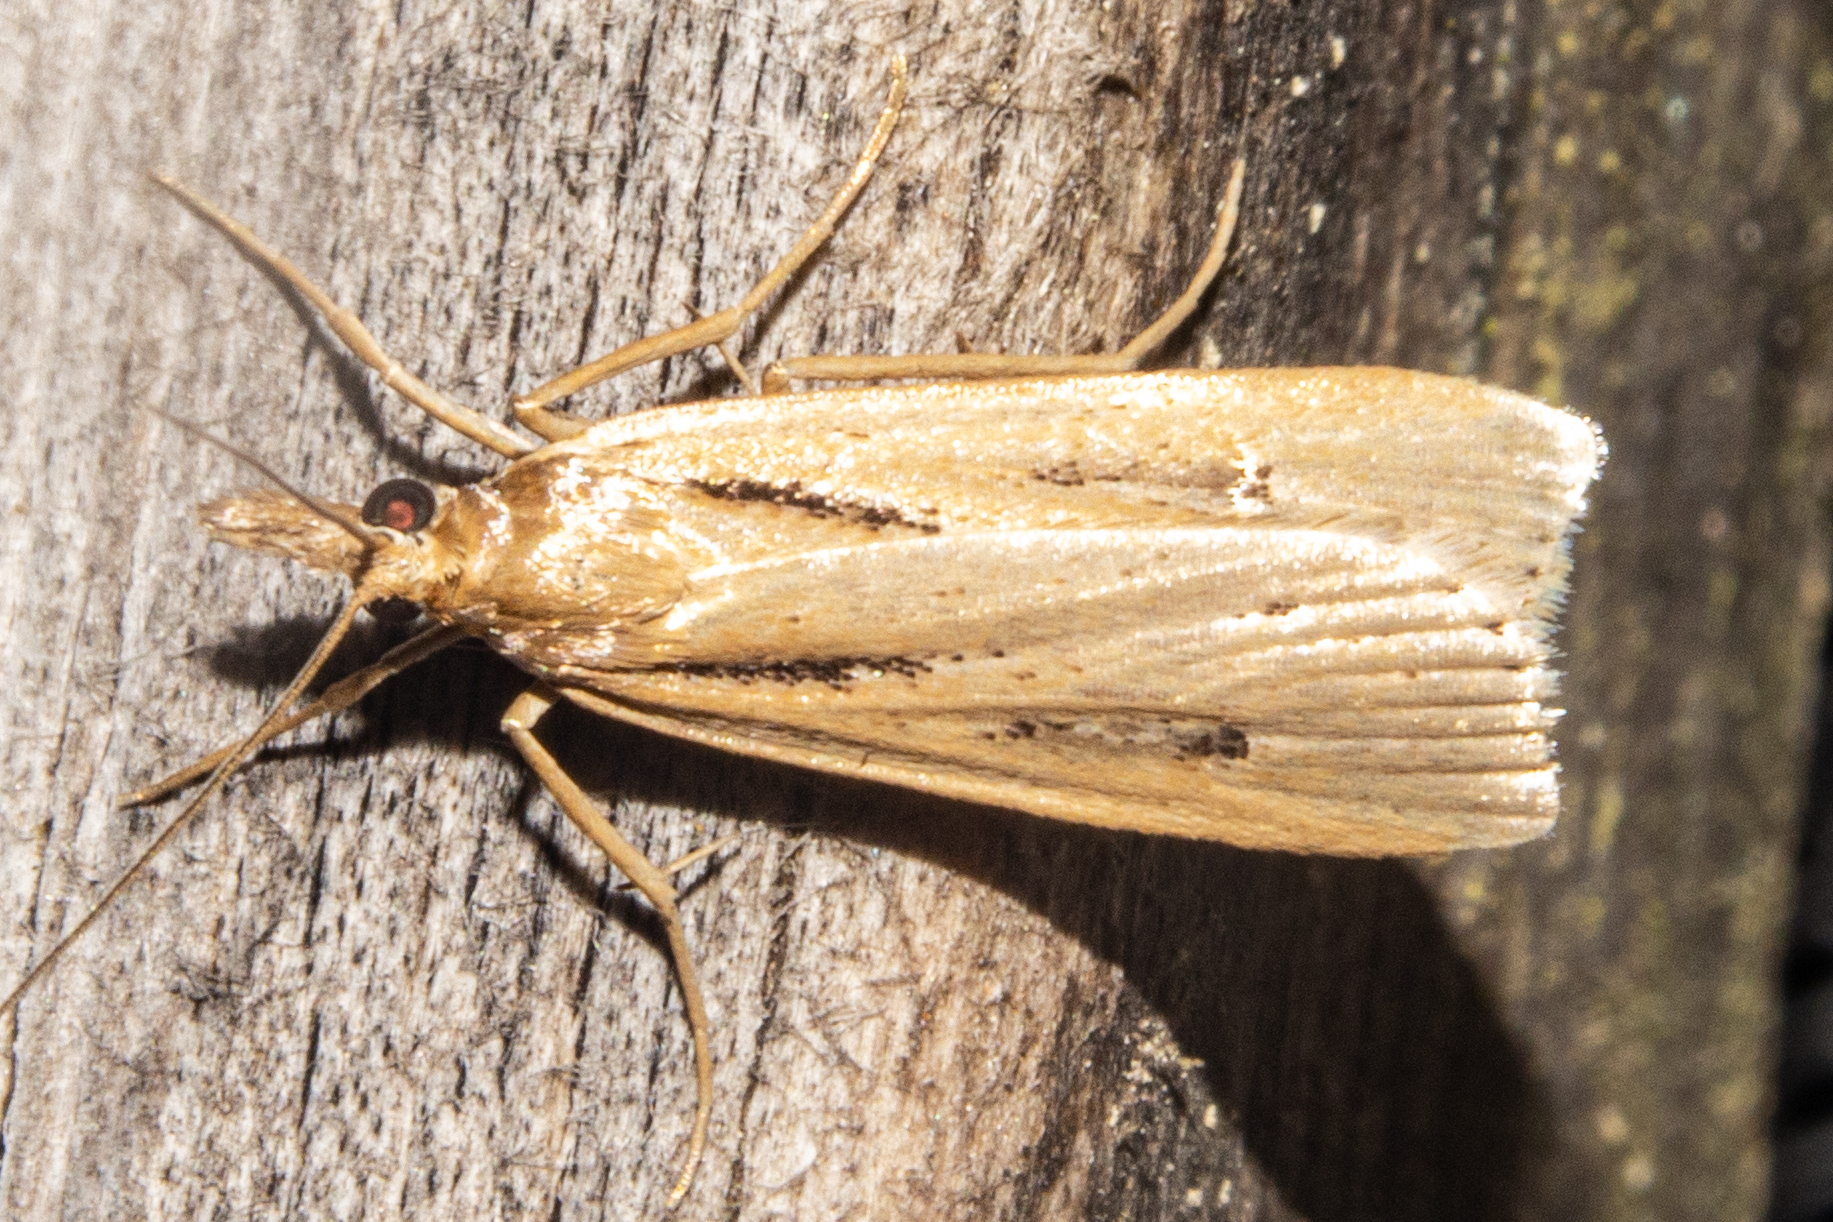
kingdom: Animalia
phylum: Arthropoda
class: Insecta
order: Lepidoptera
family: Crambidae
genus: Eudonia
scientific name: Eudonia sabulosella
